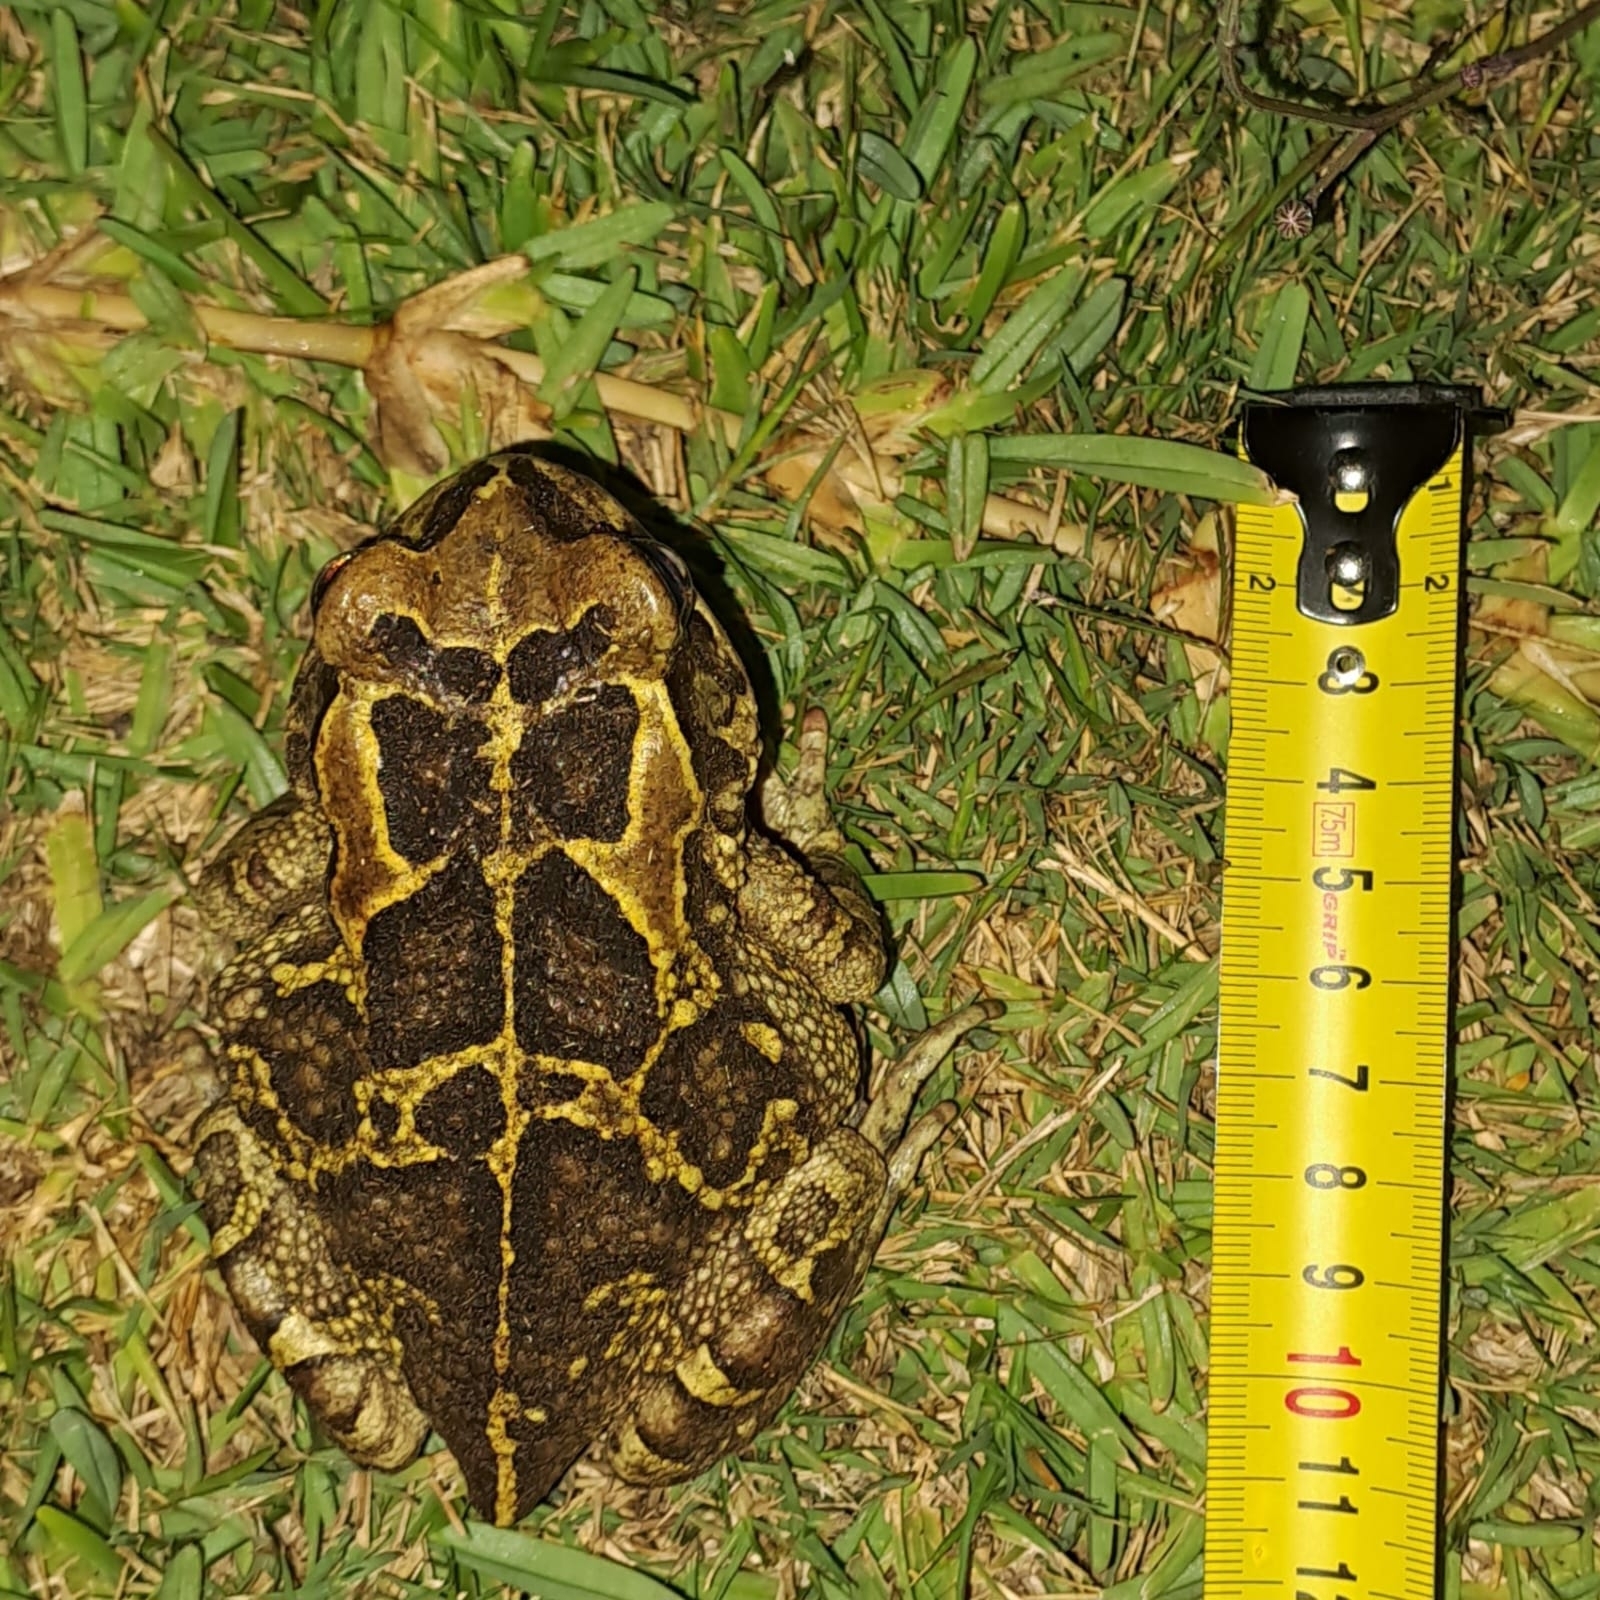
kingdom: Animalia
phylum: Chordata
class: Amphibia
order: Anura
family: Bufonidae
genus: Sclerophrys
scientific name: Sclerophrys pantherina
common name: Panther toad
